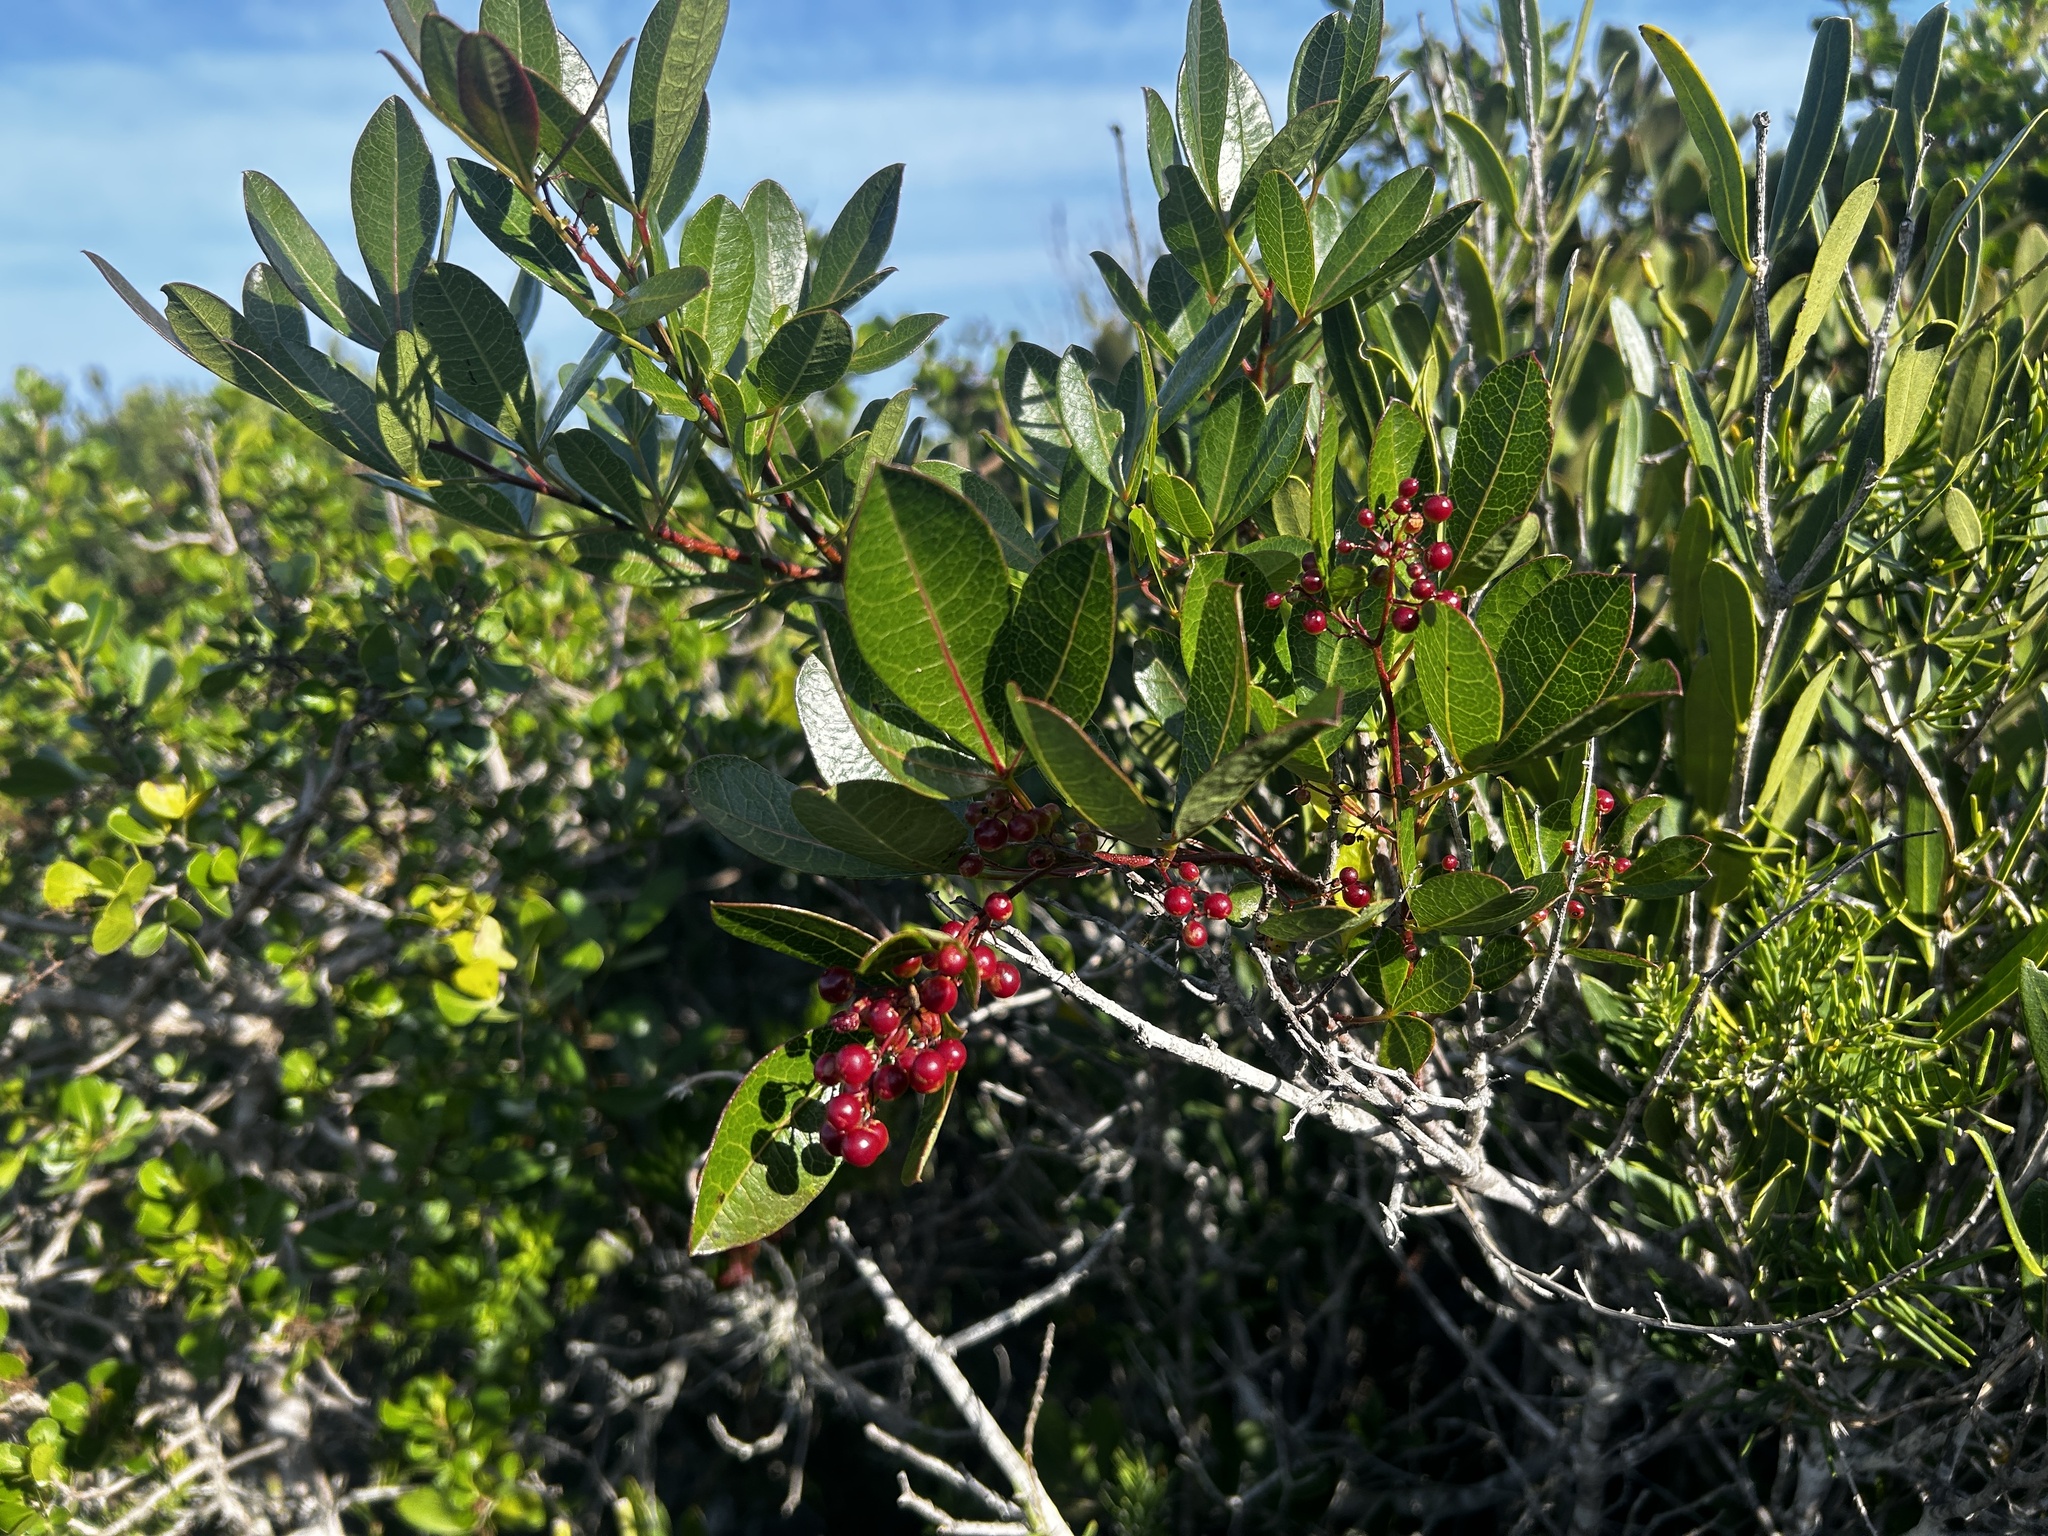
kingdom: Plantae
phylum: Tracheophyta
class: Magnoliopsida
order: Sapindales
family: Anacardiaceae
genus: Searsia
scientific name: Searsia laevigata
